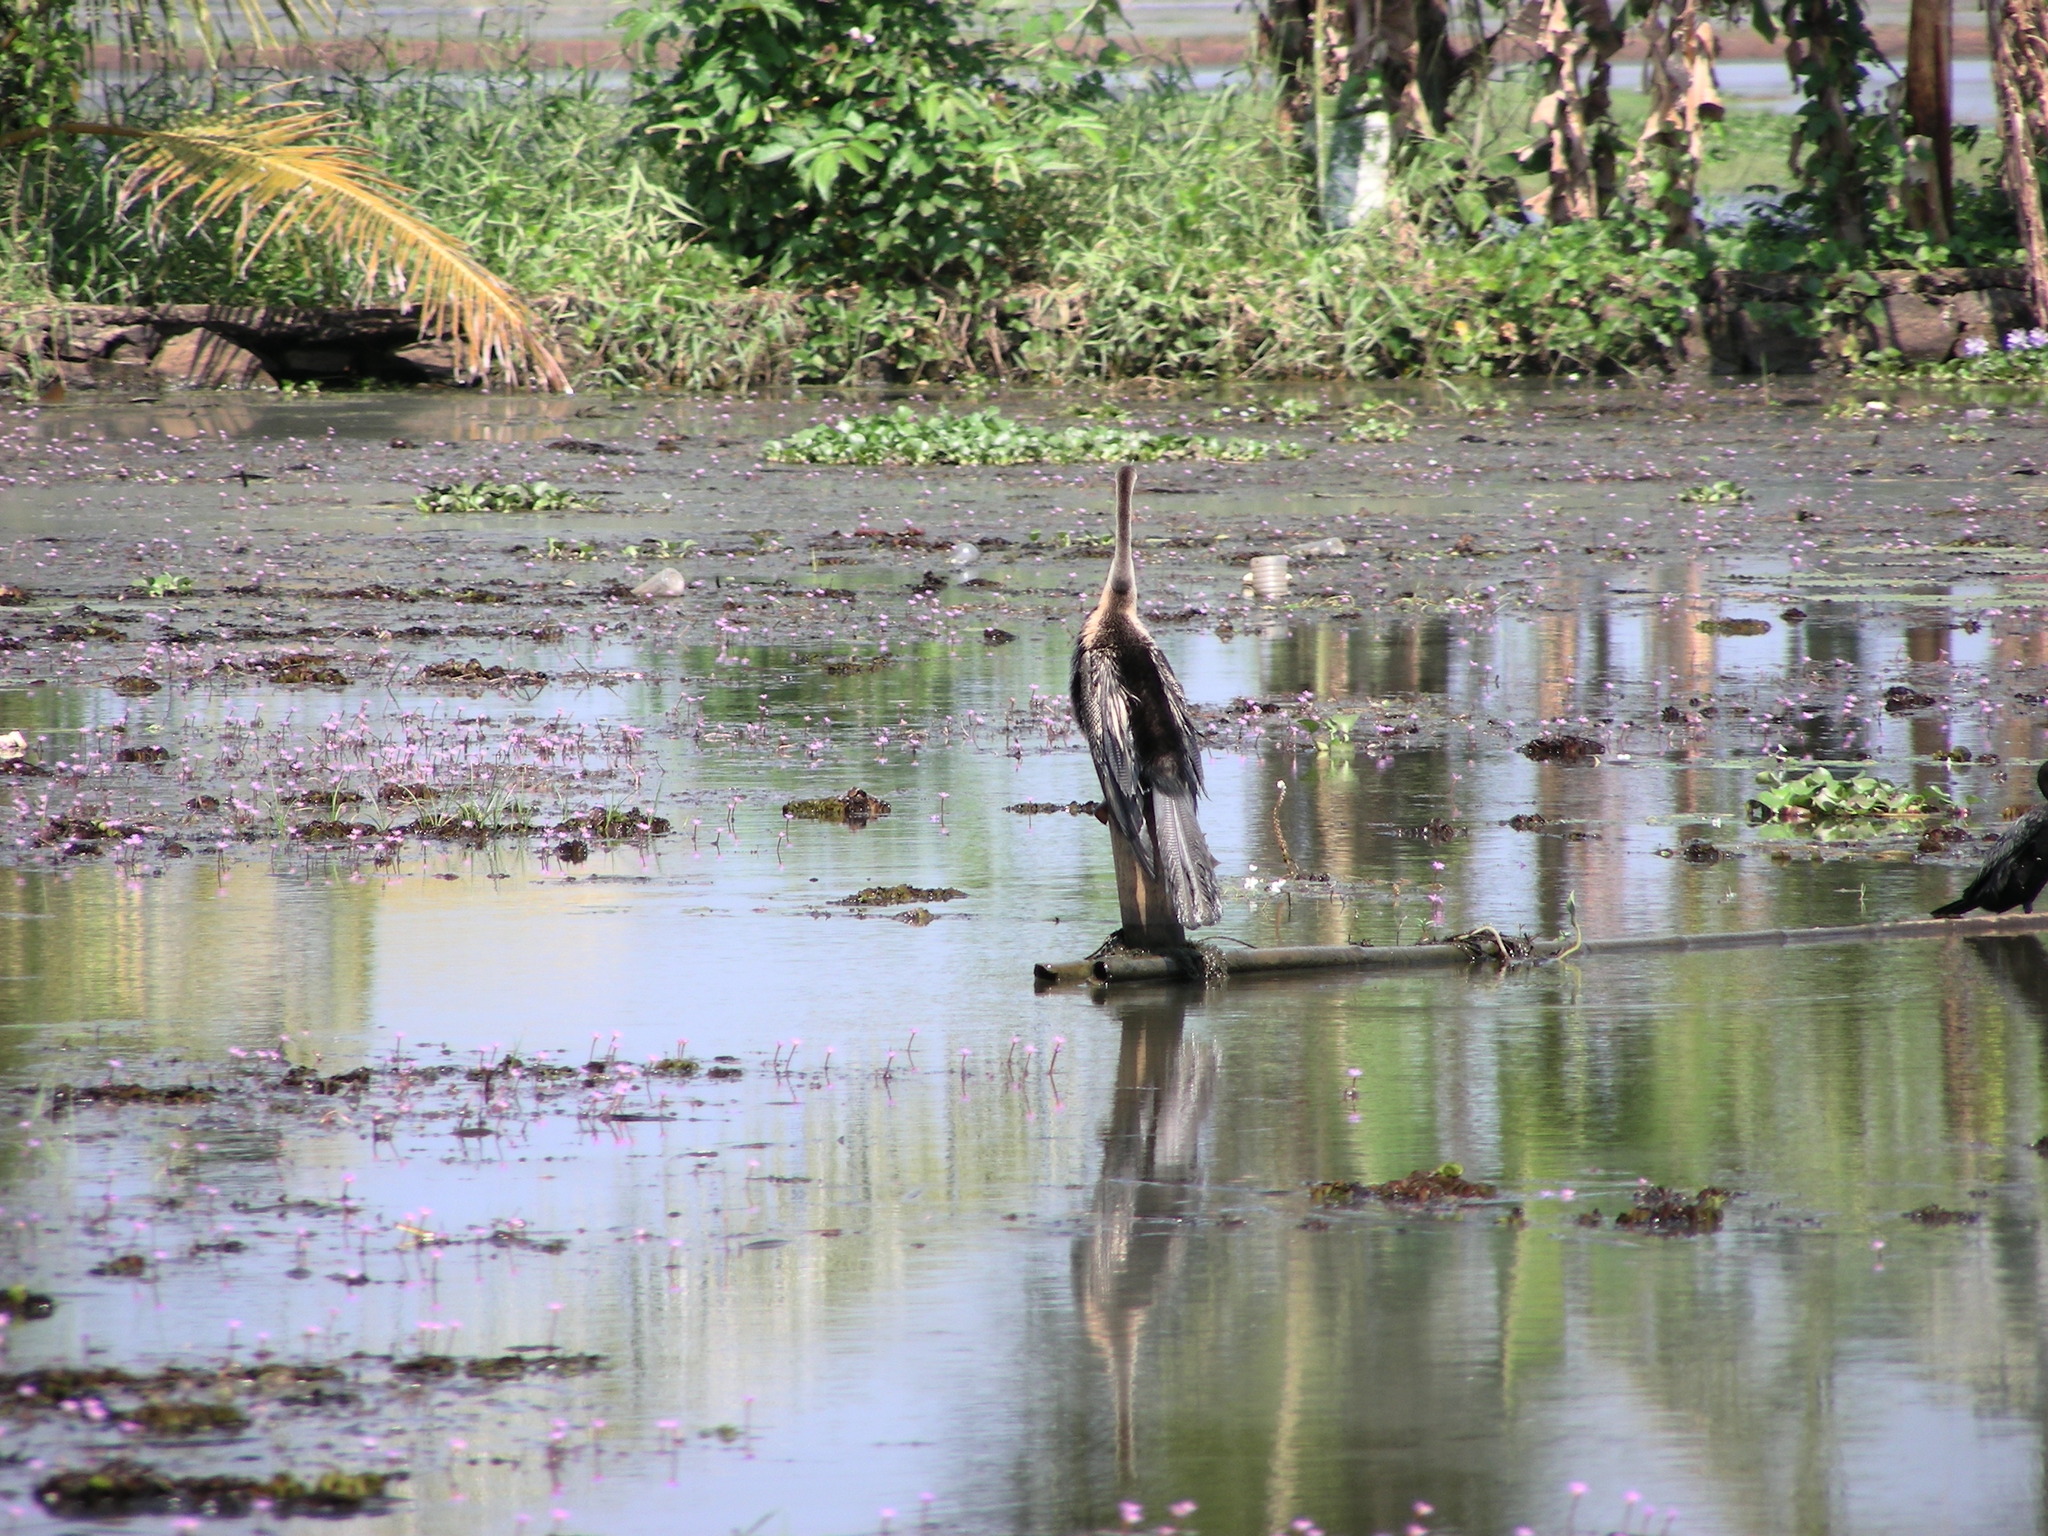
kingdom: Animalia
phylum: Chordata
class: Aves
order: Suliformes
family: Anhingidae
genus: Anhinga
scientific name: Anhinga melanogaster
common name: Oriental darter
